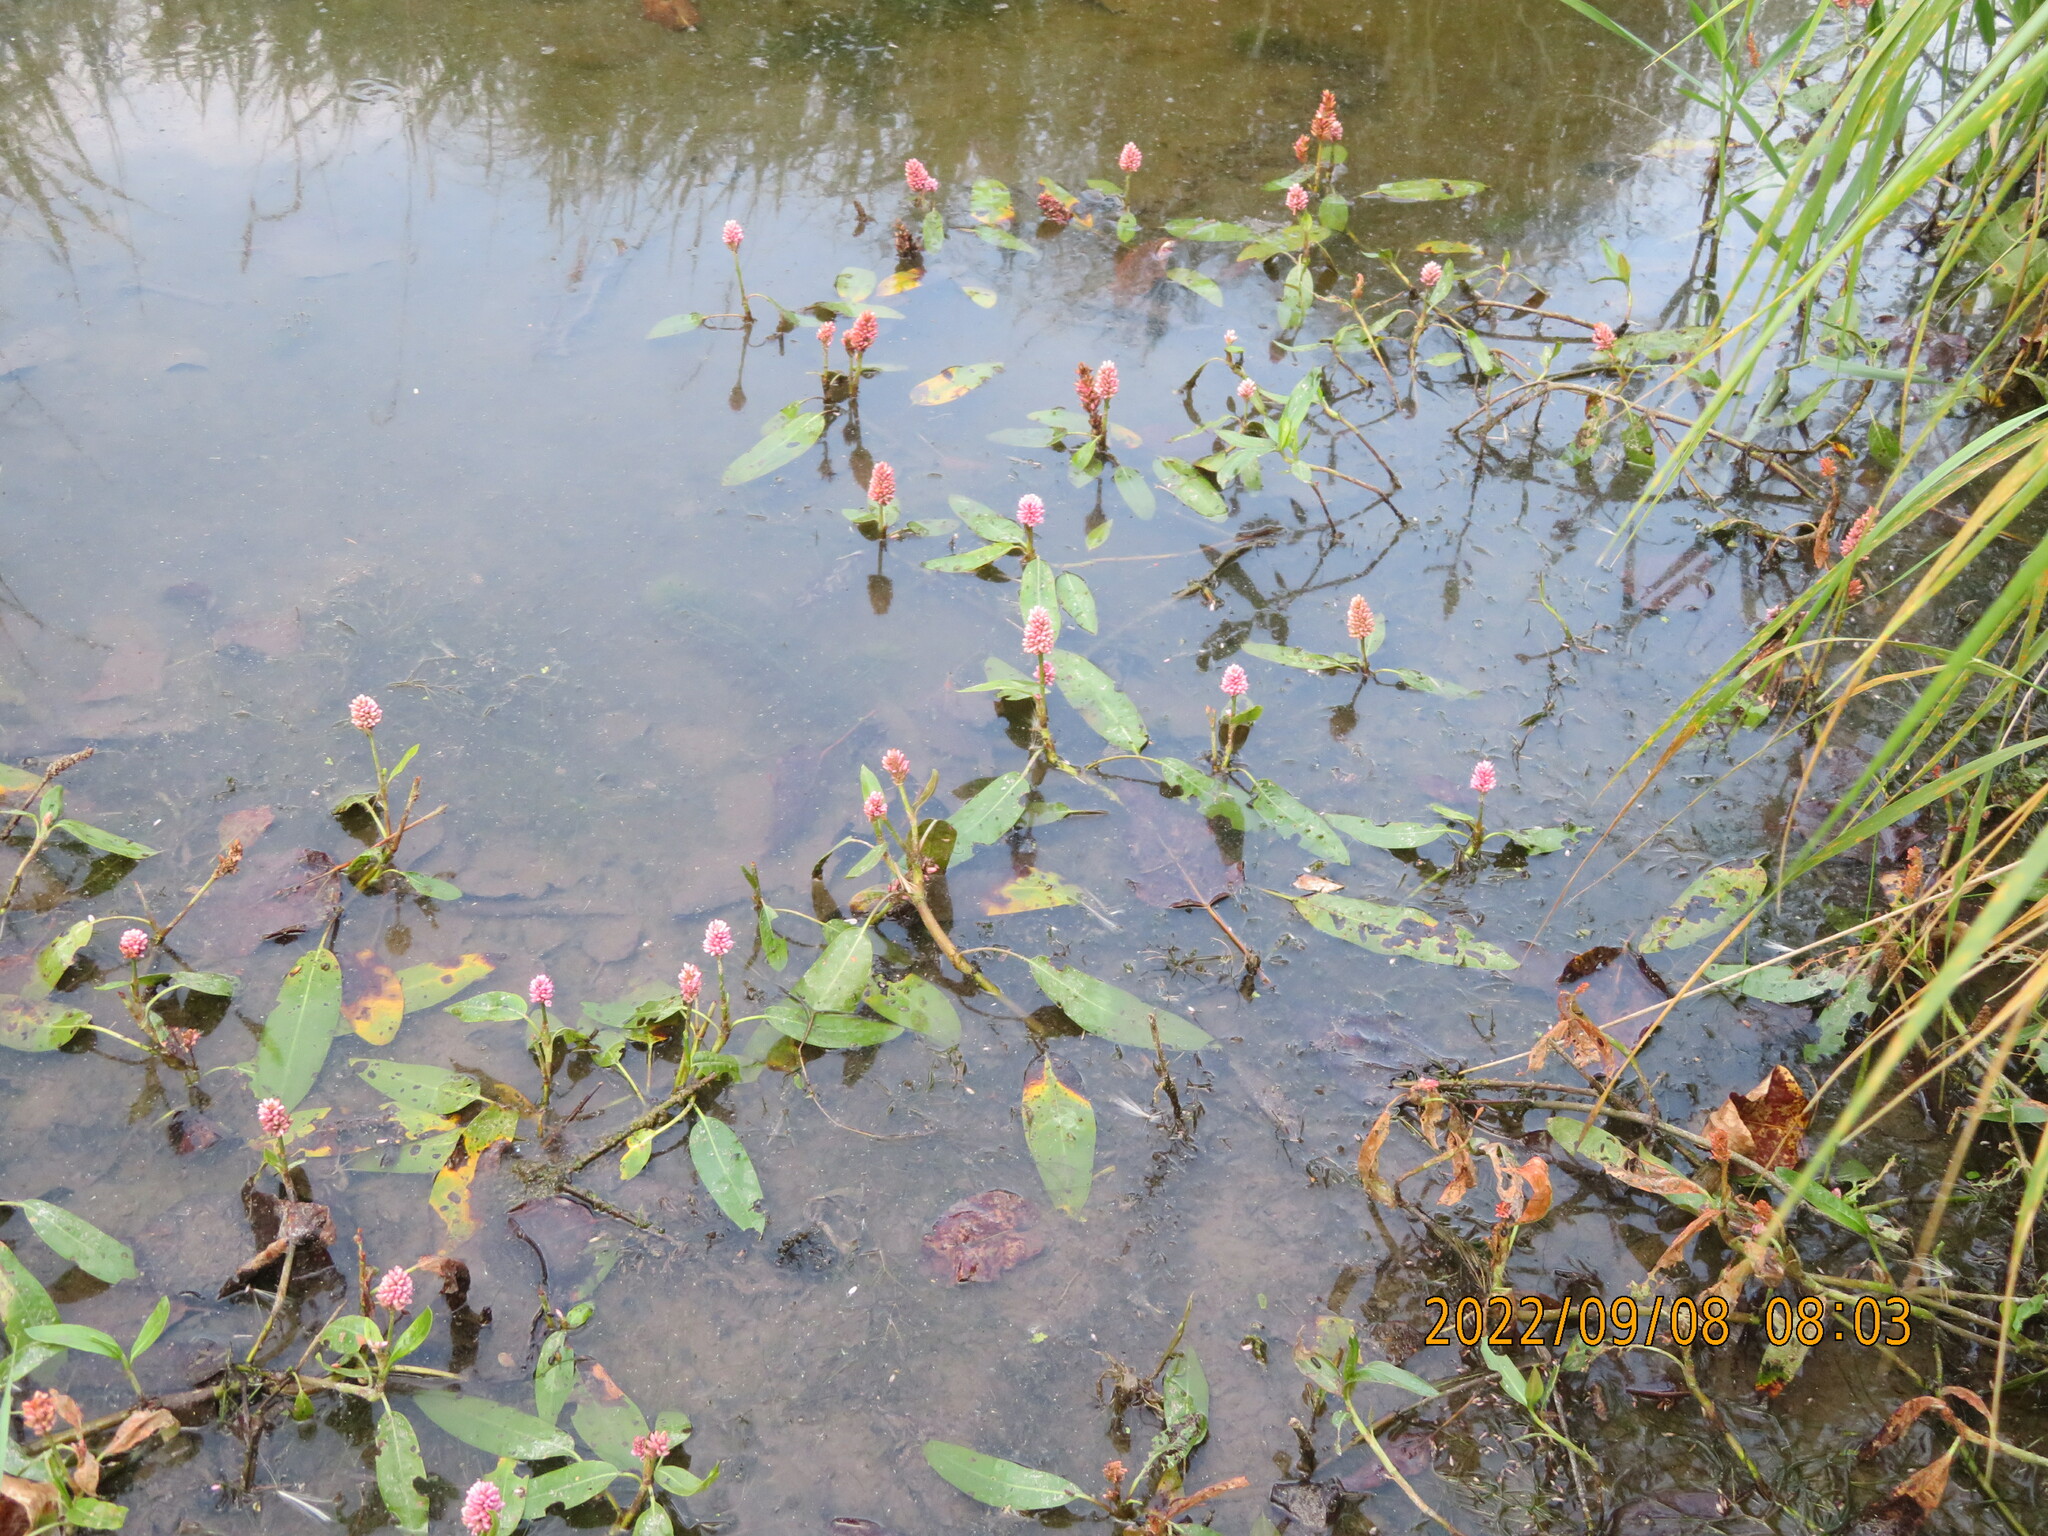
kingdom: Plantae
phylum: Tracheophyta
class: Magnoliopsida
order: Caryophyllales
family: Polygonaceae
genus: Persicaria
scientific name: Persicaria amphibia
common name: Amphibious bistort
